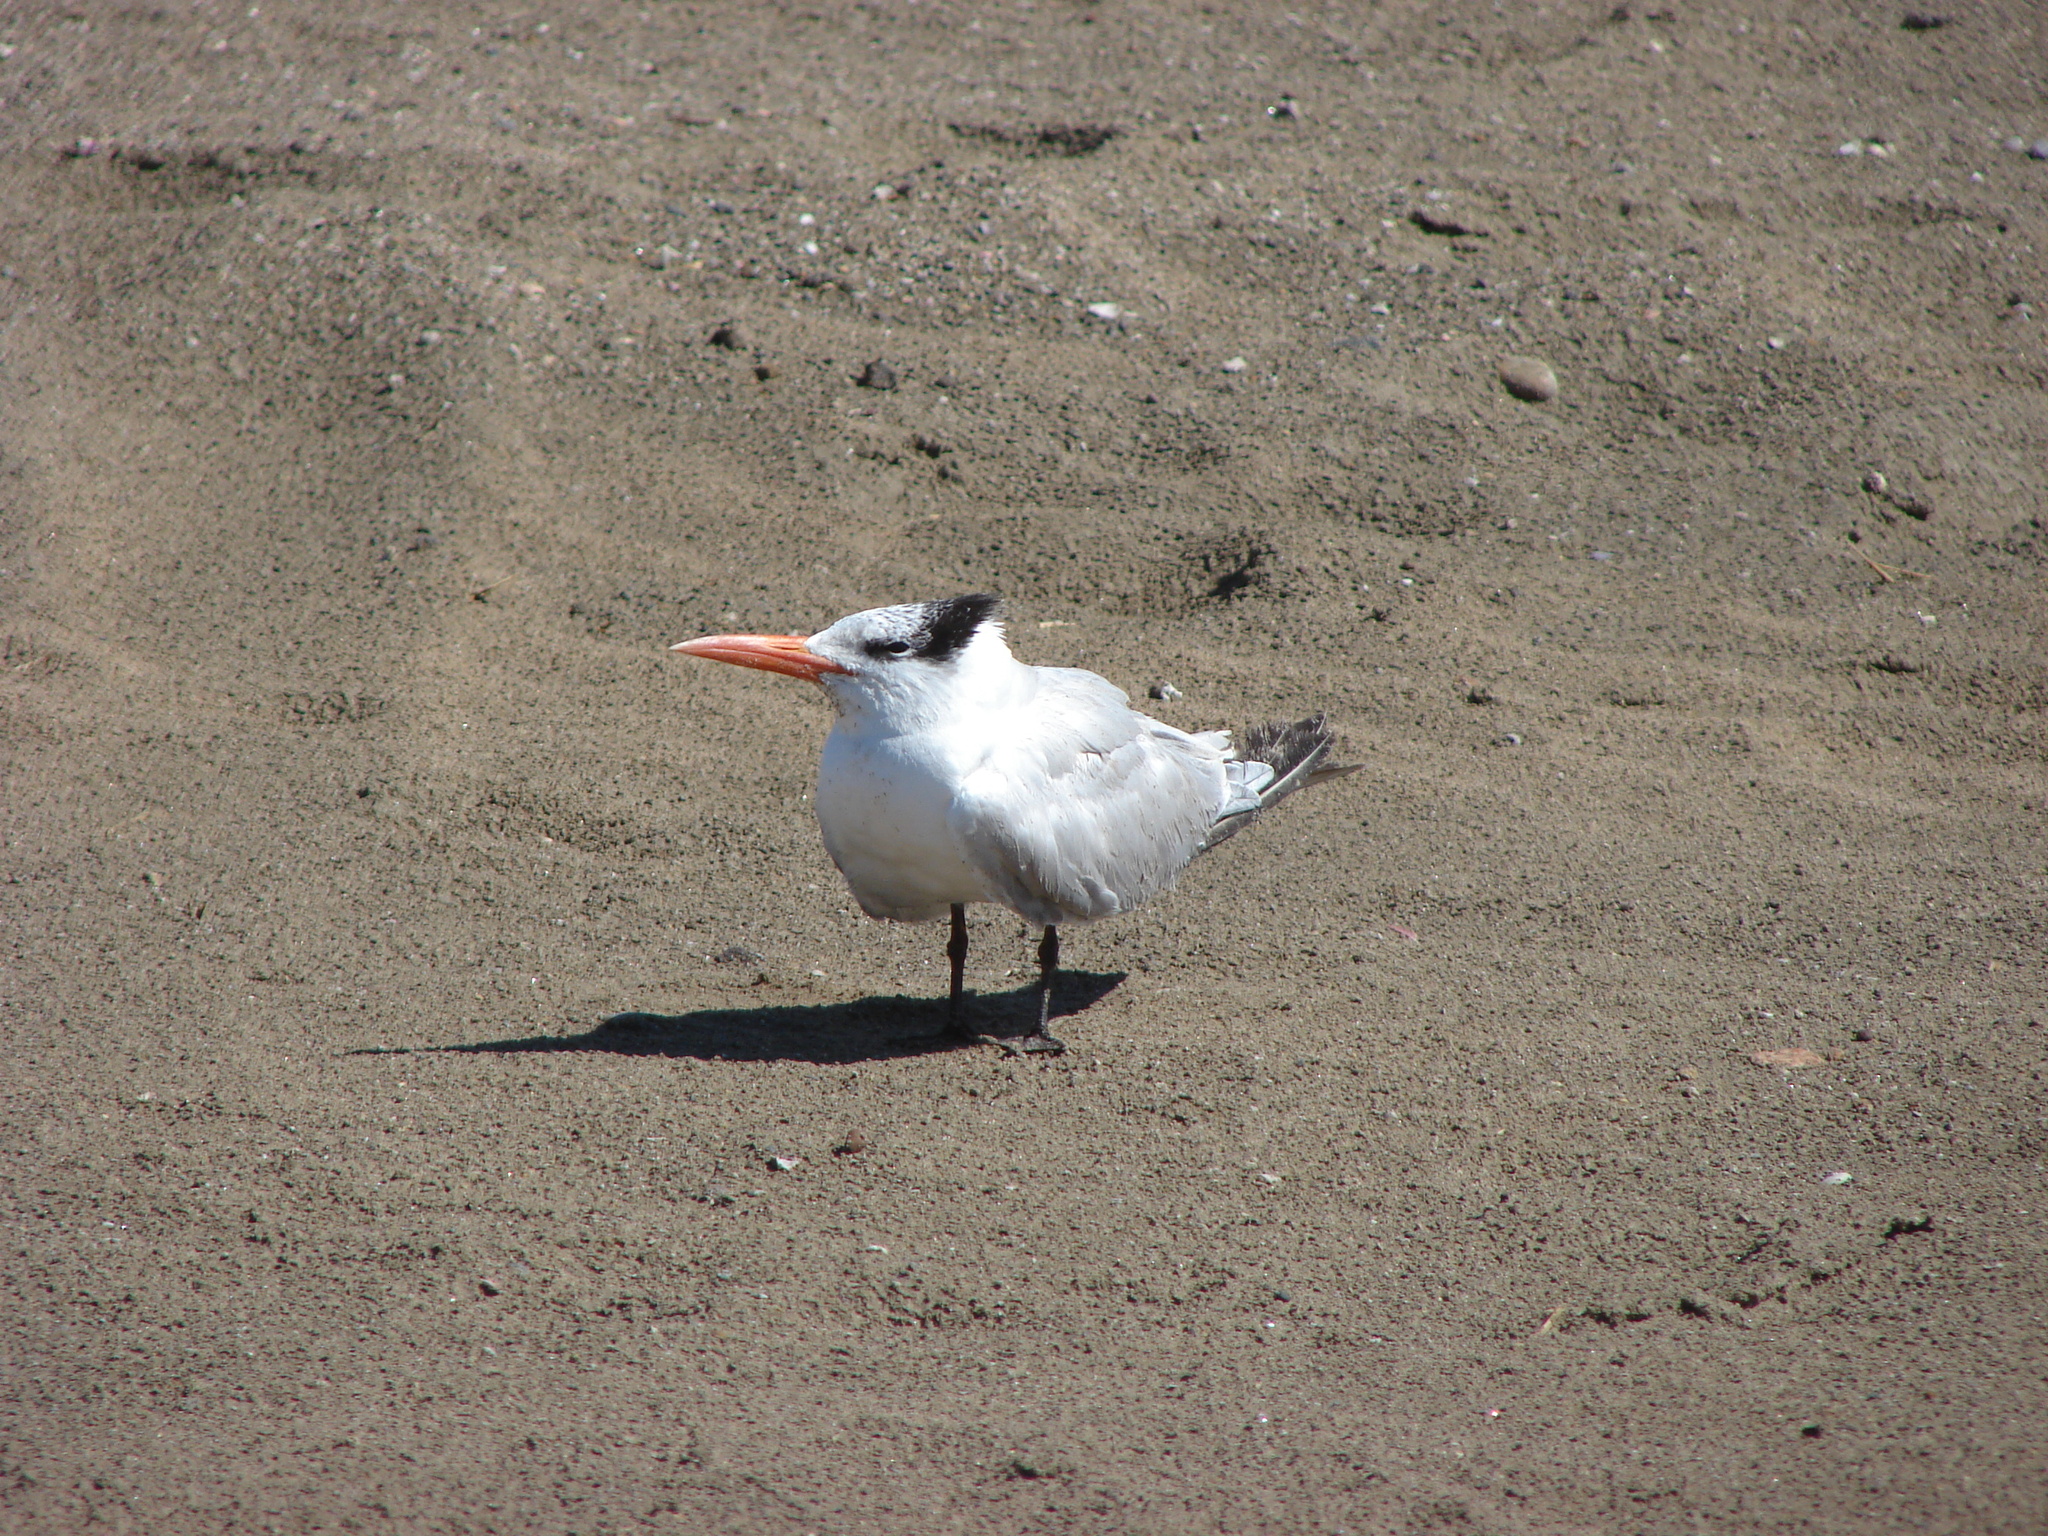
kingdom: Animalia
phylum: Chordata
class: Aves
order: Charadriiformes
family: Laridae
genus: Thalasseus
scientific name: Thalasseus maximus
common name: Royal tern
